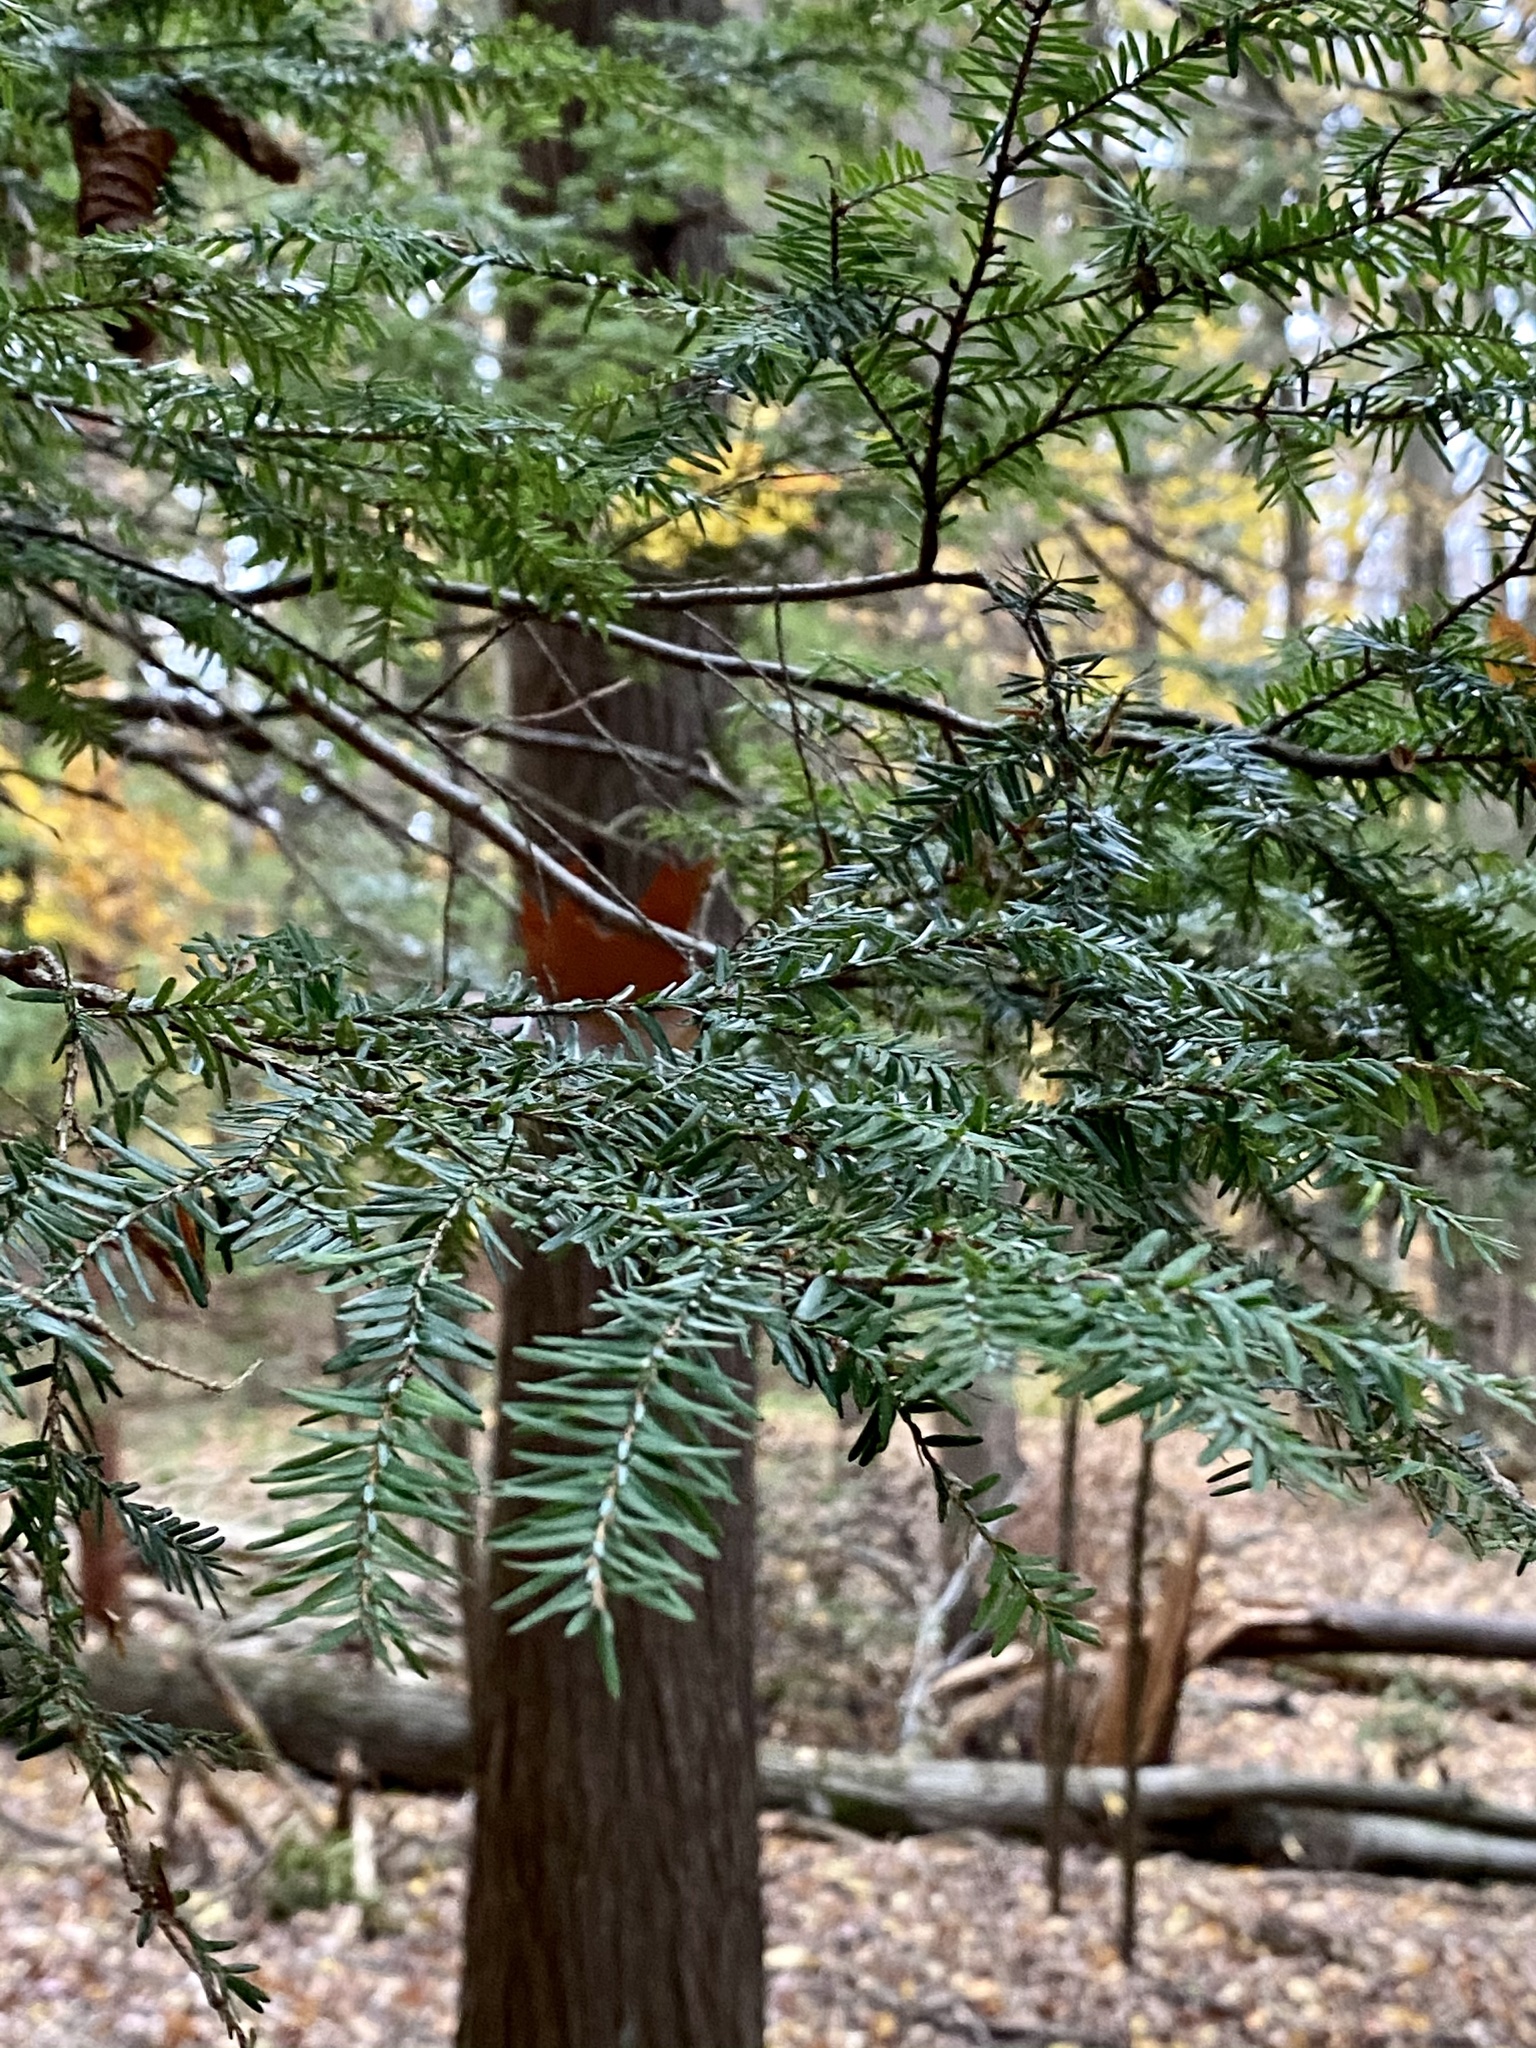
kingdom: Plantae
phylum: Tracheophyta
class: Pinopsida
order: Pinales
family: Pinaceae
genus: Tsuga
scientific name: Tsuga canadensis
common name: Eastern hemlock
